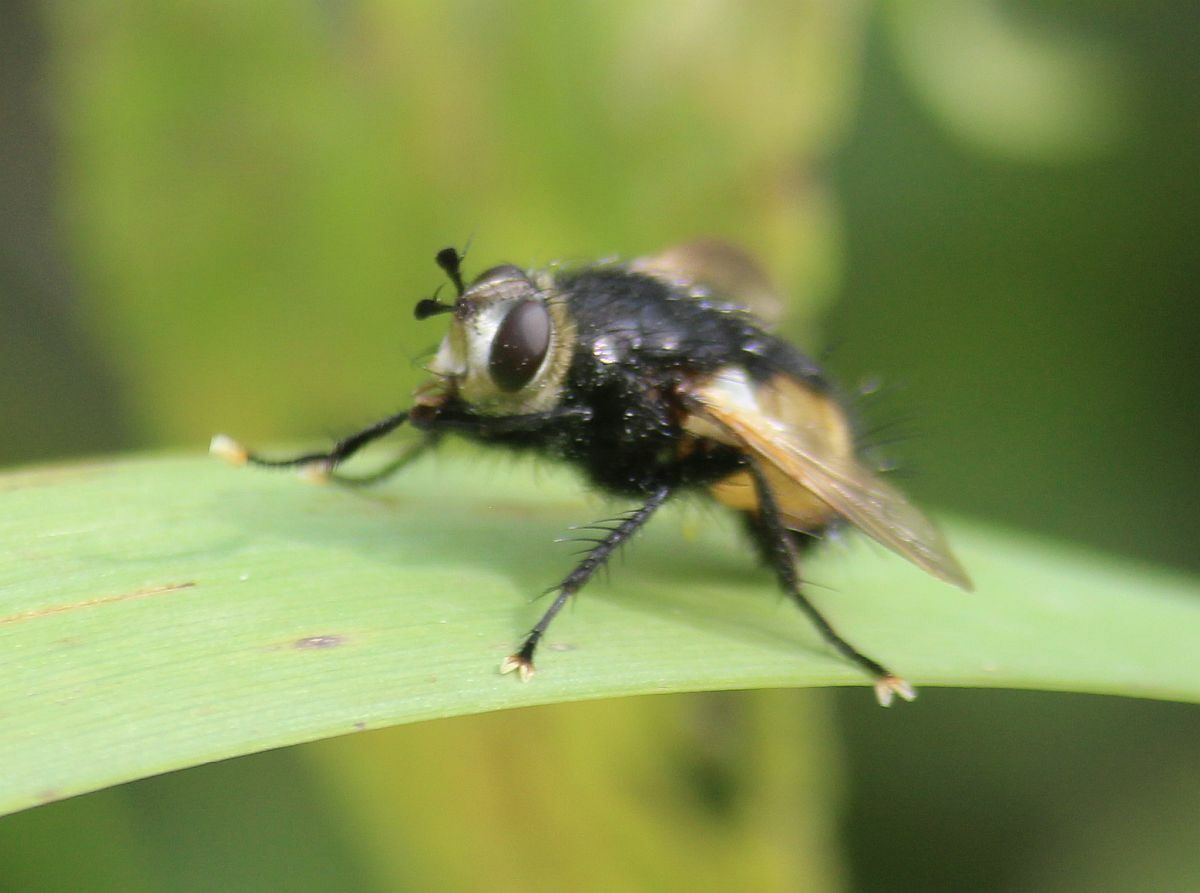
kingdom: Animalia
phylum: Arthropoda
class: Insecta
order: Diptera
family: Tachinidae
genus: Nowickia
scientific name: Nowickia ferox
